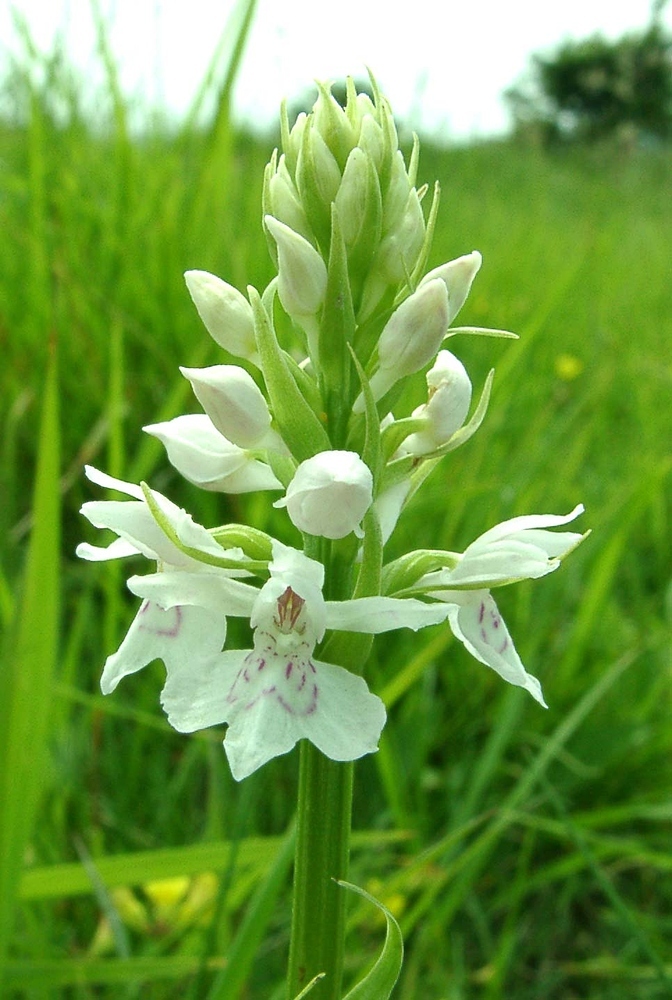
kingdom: Plantae
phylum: Tracheophyta
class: Liliopsida
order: Asparagales
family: Orchidaceae
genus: Dactylorhiza
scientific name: Dactylorhiza maculata
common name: Heath spotted-orchid
